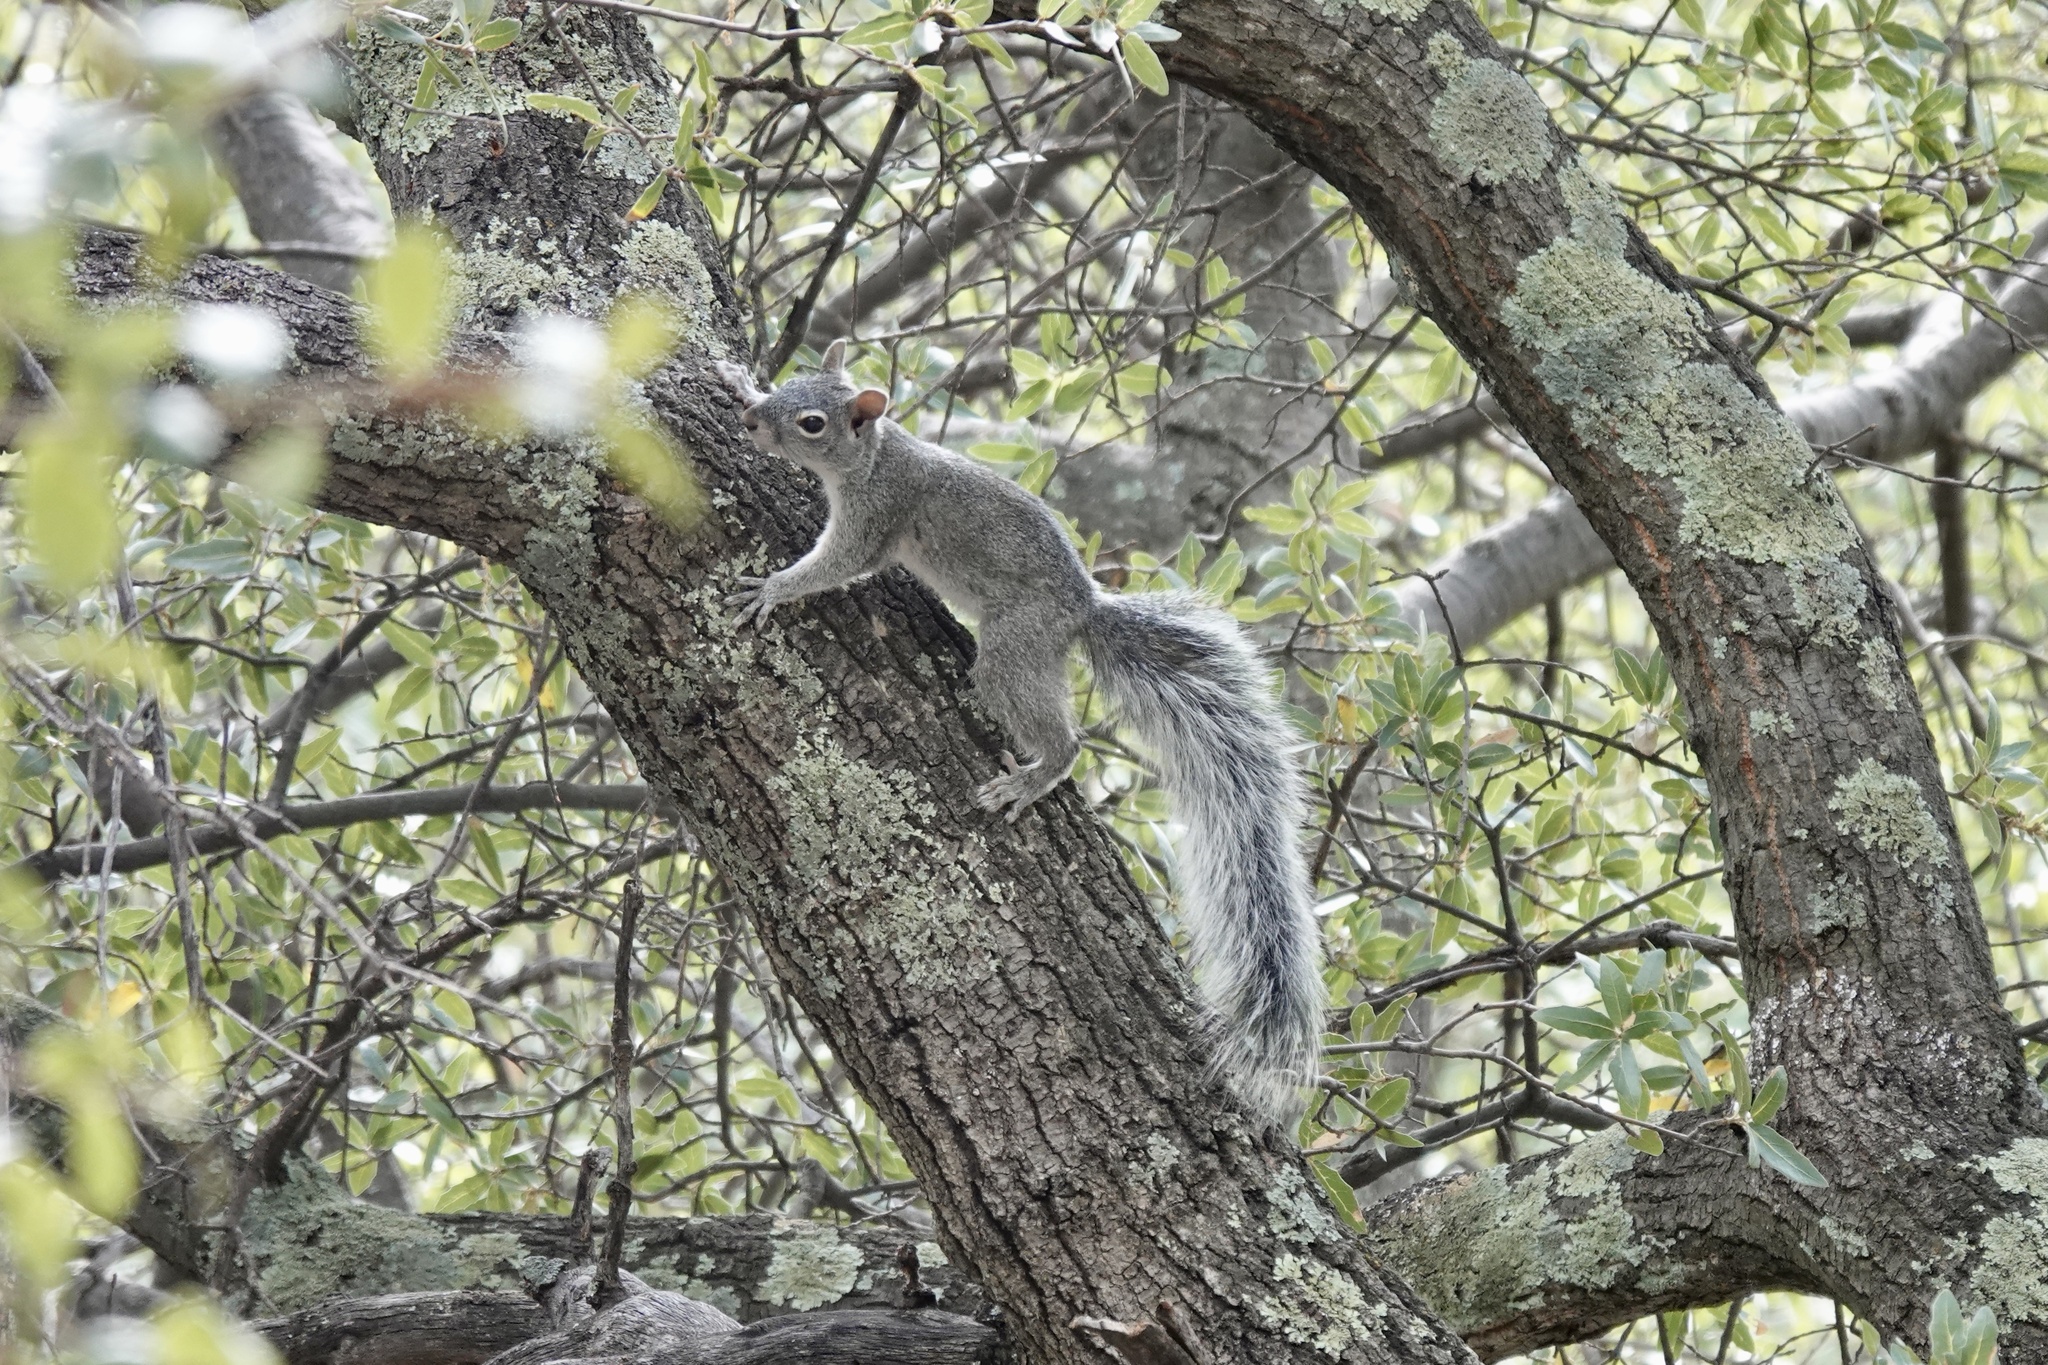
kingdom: Animalia
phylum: Chordata
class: Mammalia
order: Rodentia
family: Sciuridae
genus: Sciurus
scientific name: Sciurus arizonensis
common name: Arizona gray squirrel
